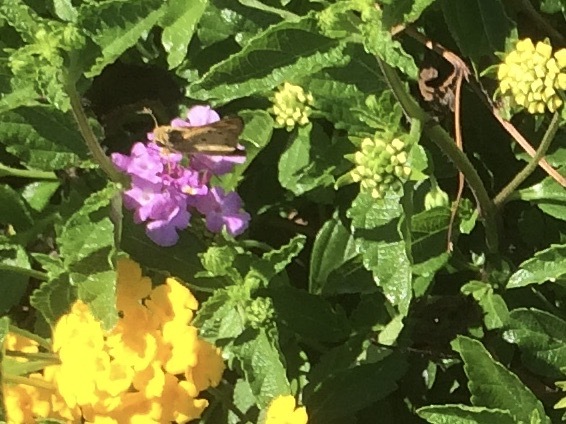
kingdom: Animalia
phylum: Arthropoda
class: Insecta
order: Lepidoptera
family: Hesperiidae
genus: Hylephila
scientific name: Hylephila phyleus
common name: Fiery skipper
